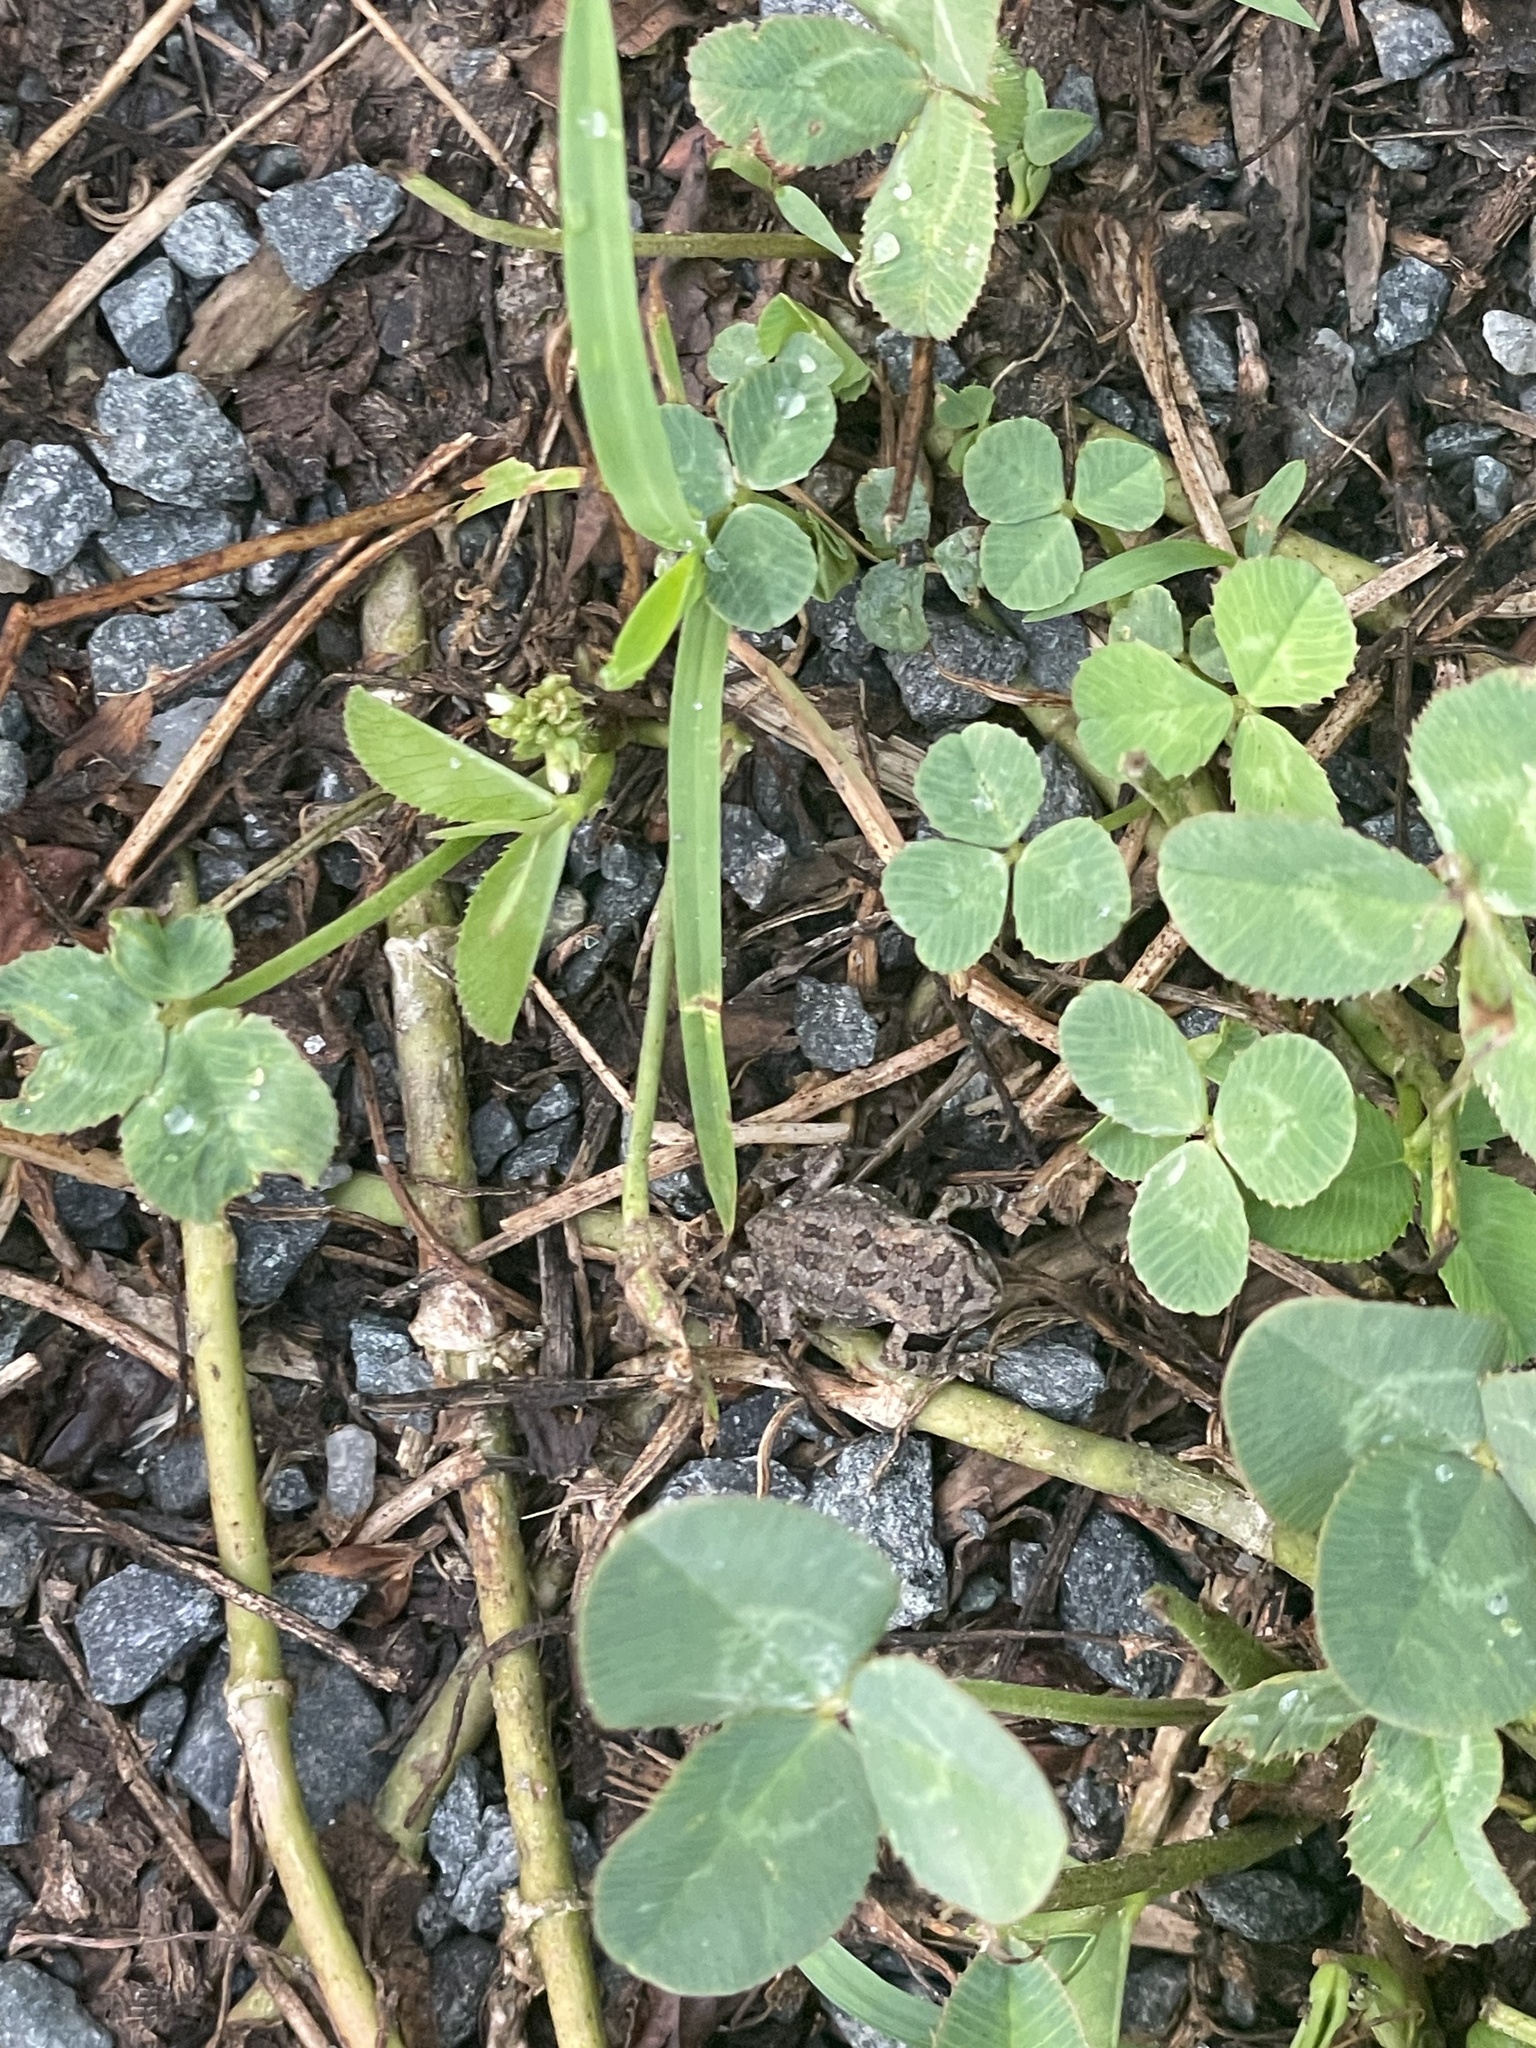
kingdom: Animalia
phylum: Chordata
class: Amphibia
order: Anura
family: Bufonidae
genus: Anaxyrus
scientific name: Anaxyrus fowleri
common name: Fowler's toad
